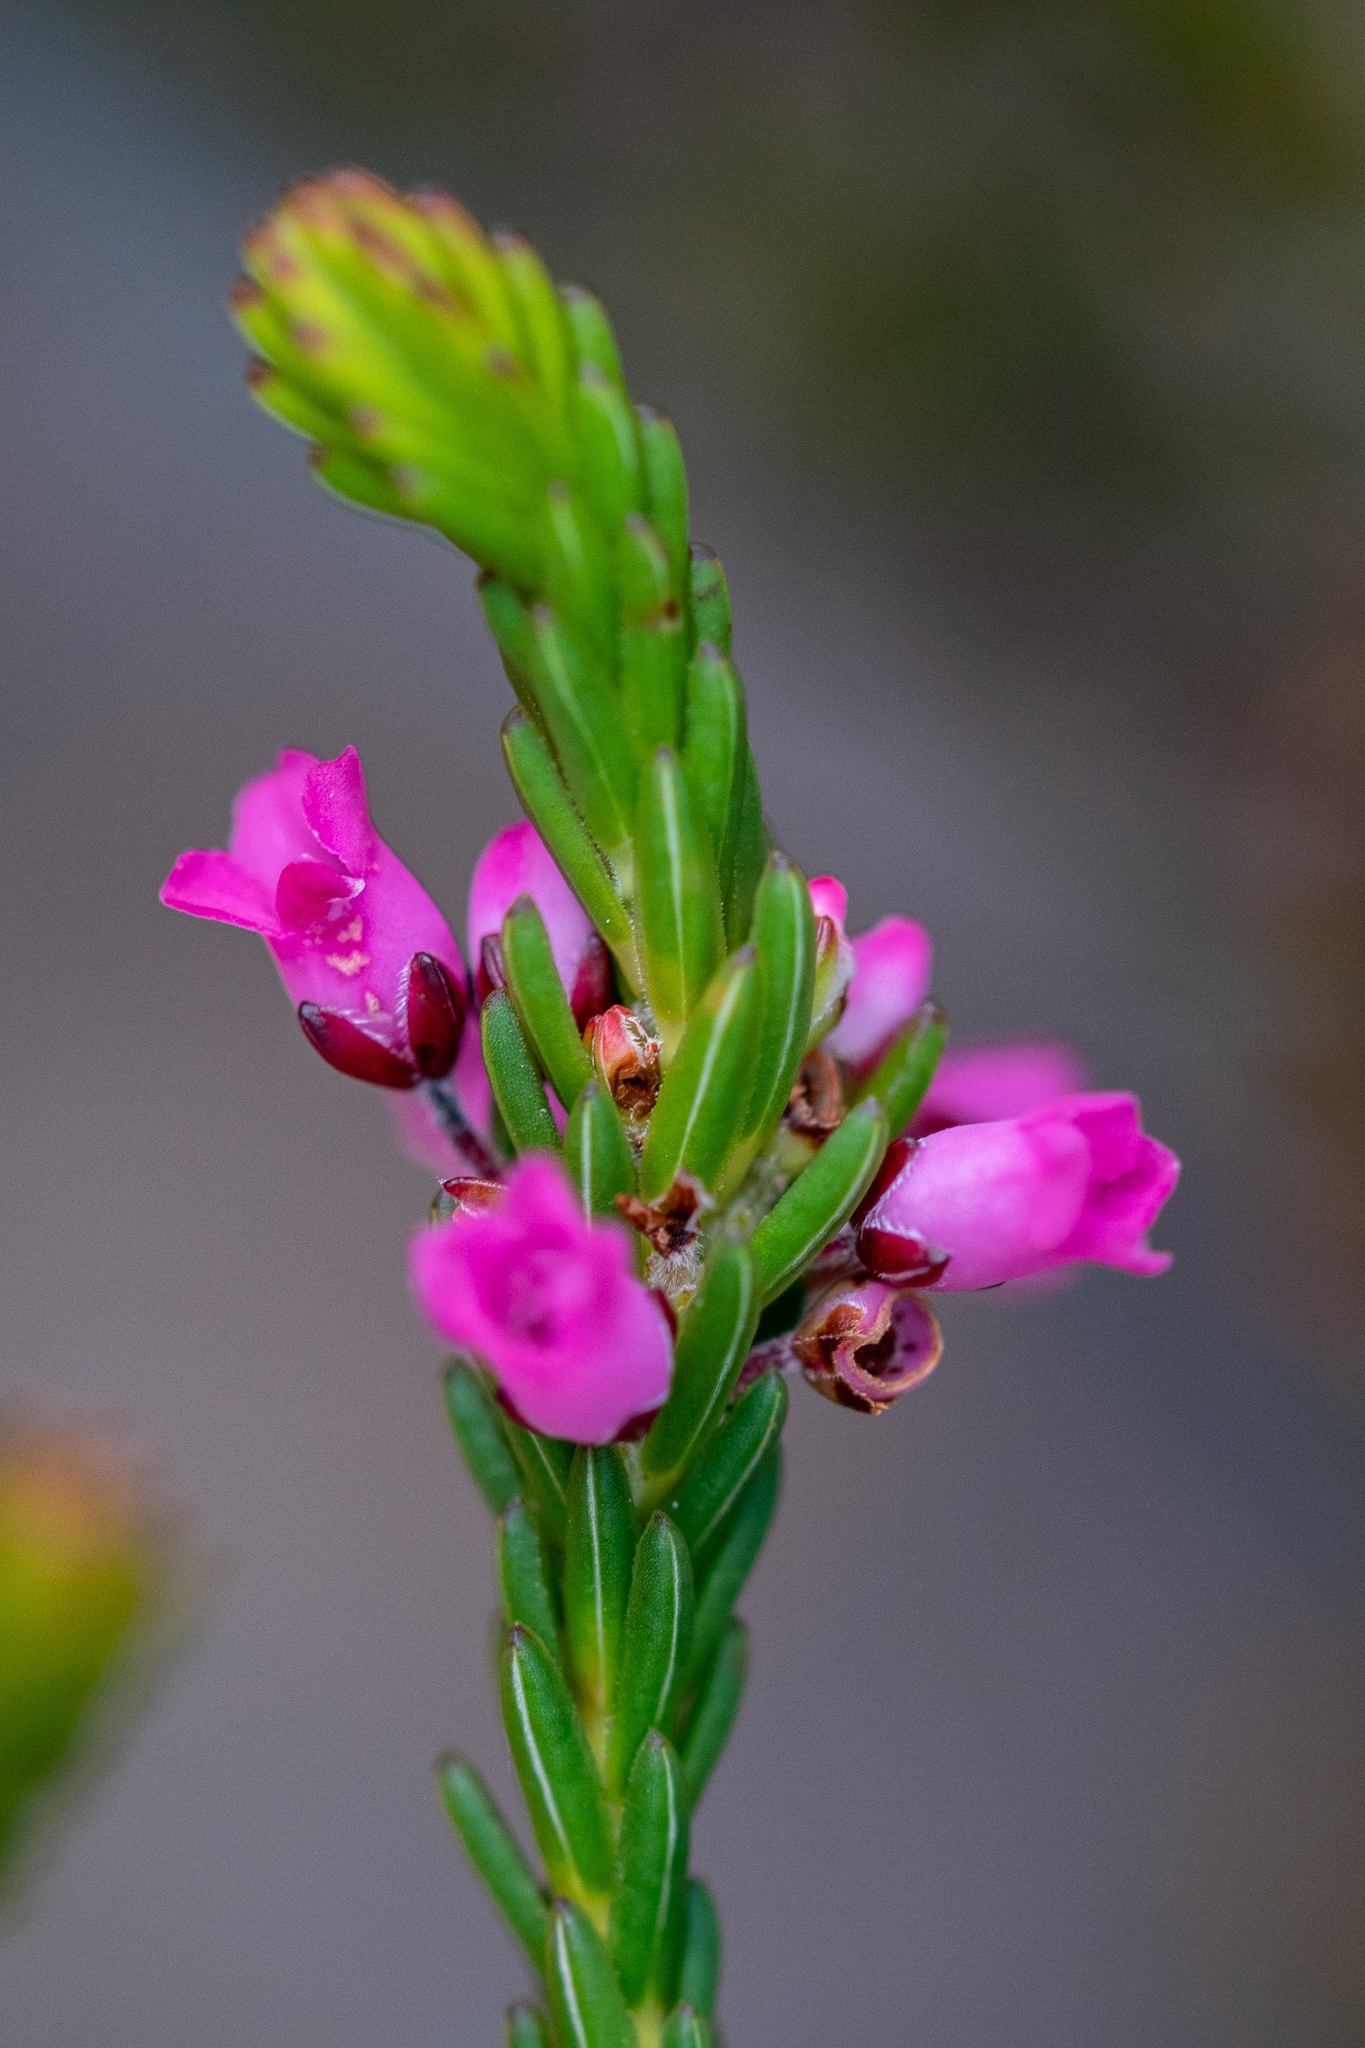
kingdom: Plantae
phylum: Tracheophyta
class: Magnoliopsida
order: Ericales
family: Ericaceae
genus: Erica
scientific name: Erica pulchella
